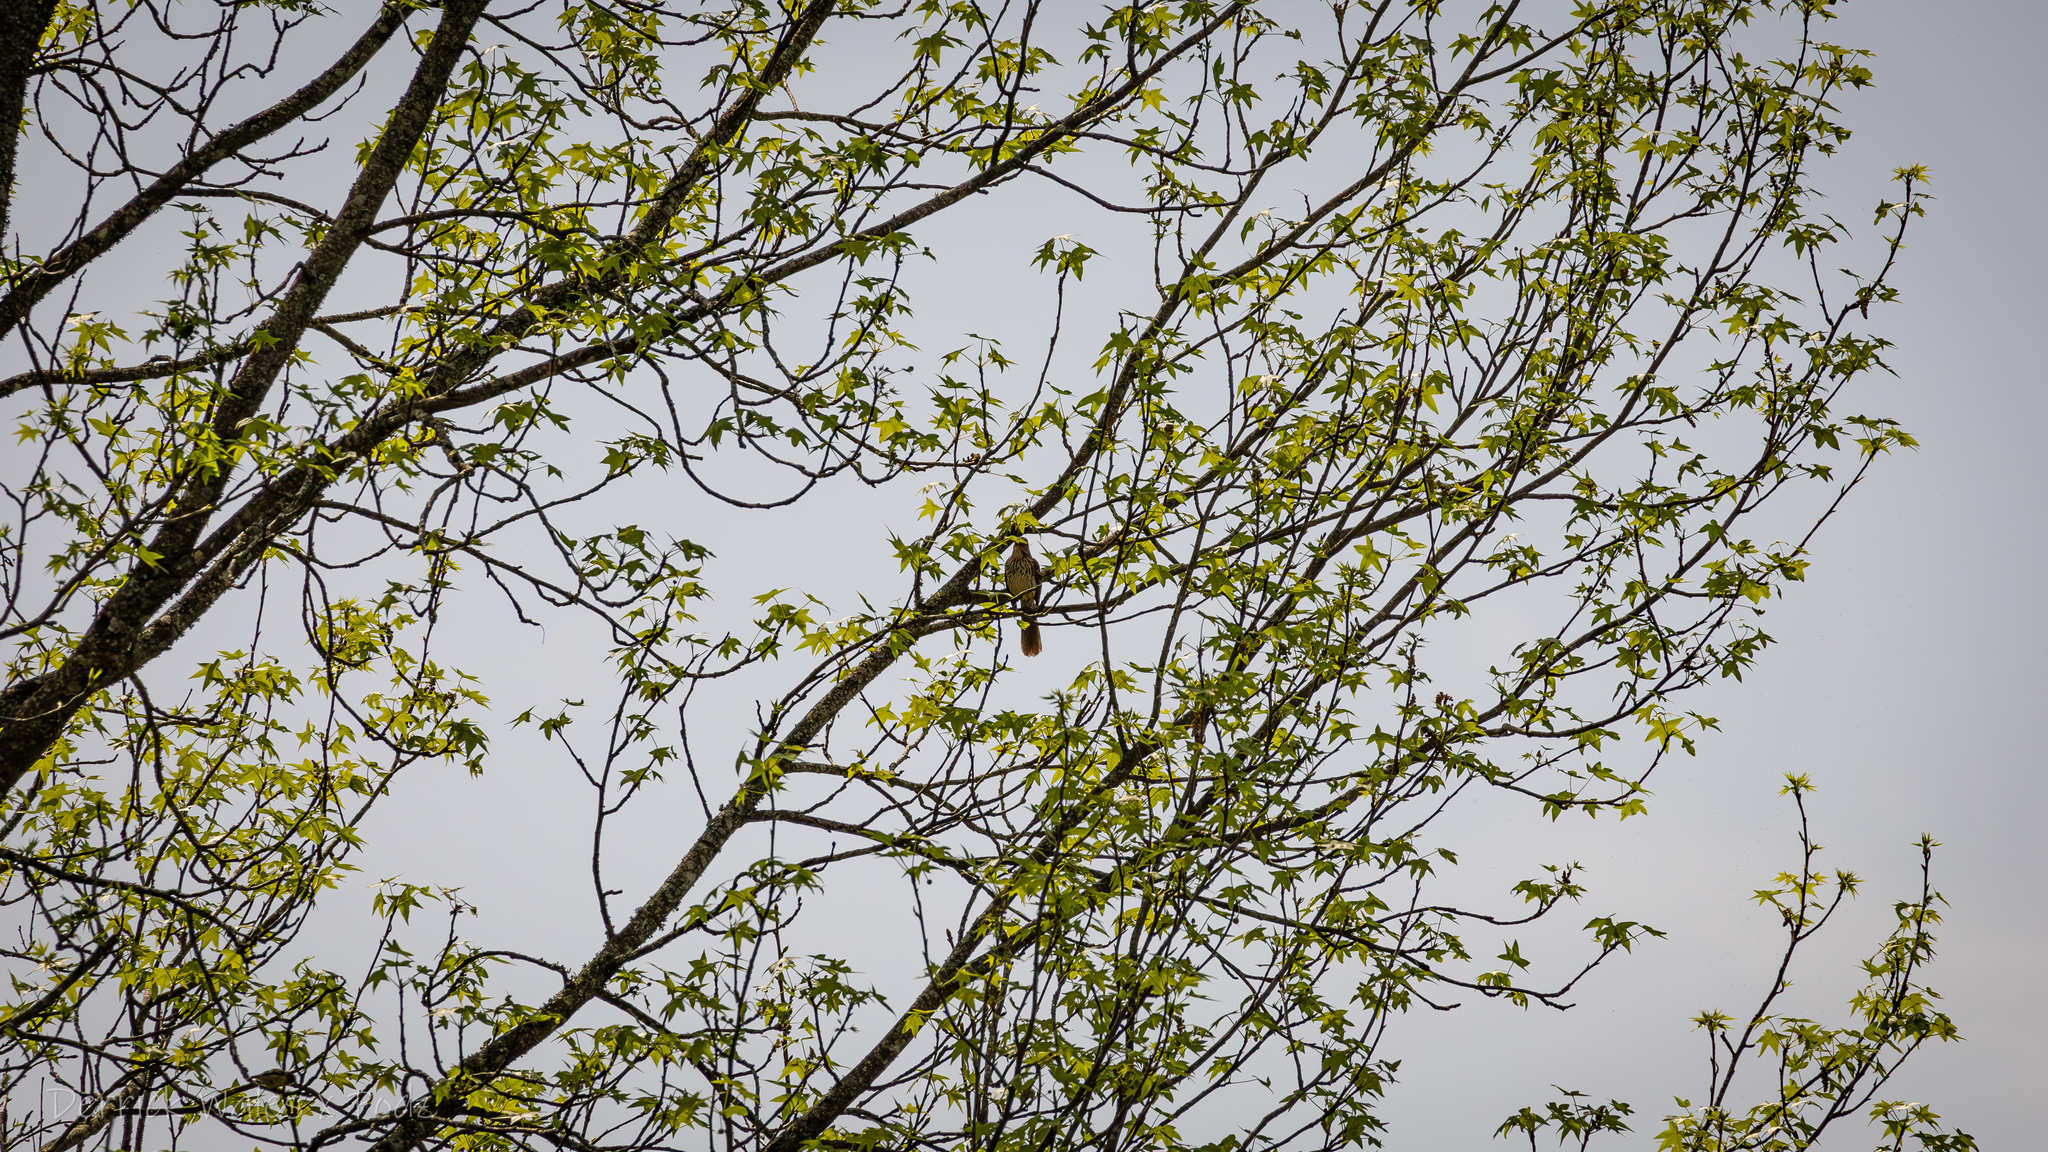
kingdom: Animalia
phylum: Chordata
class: Aves
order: Passeriformes
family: Mimidae
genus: Toxostoma
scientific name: Toxostoma rufum
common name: Brown thrasher
